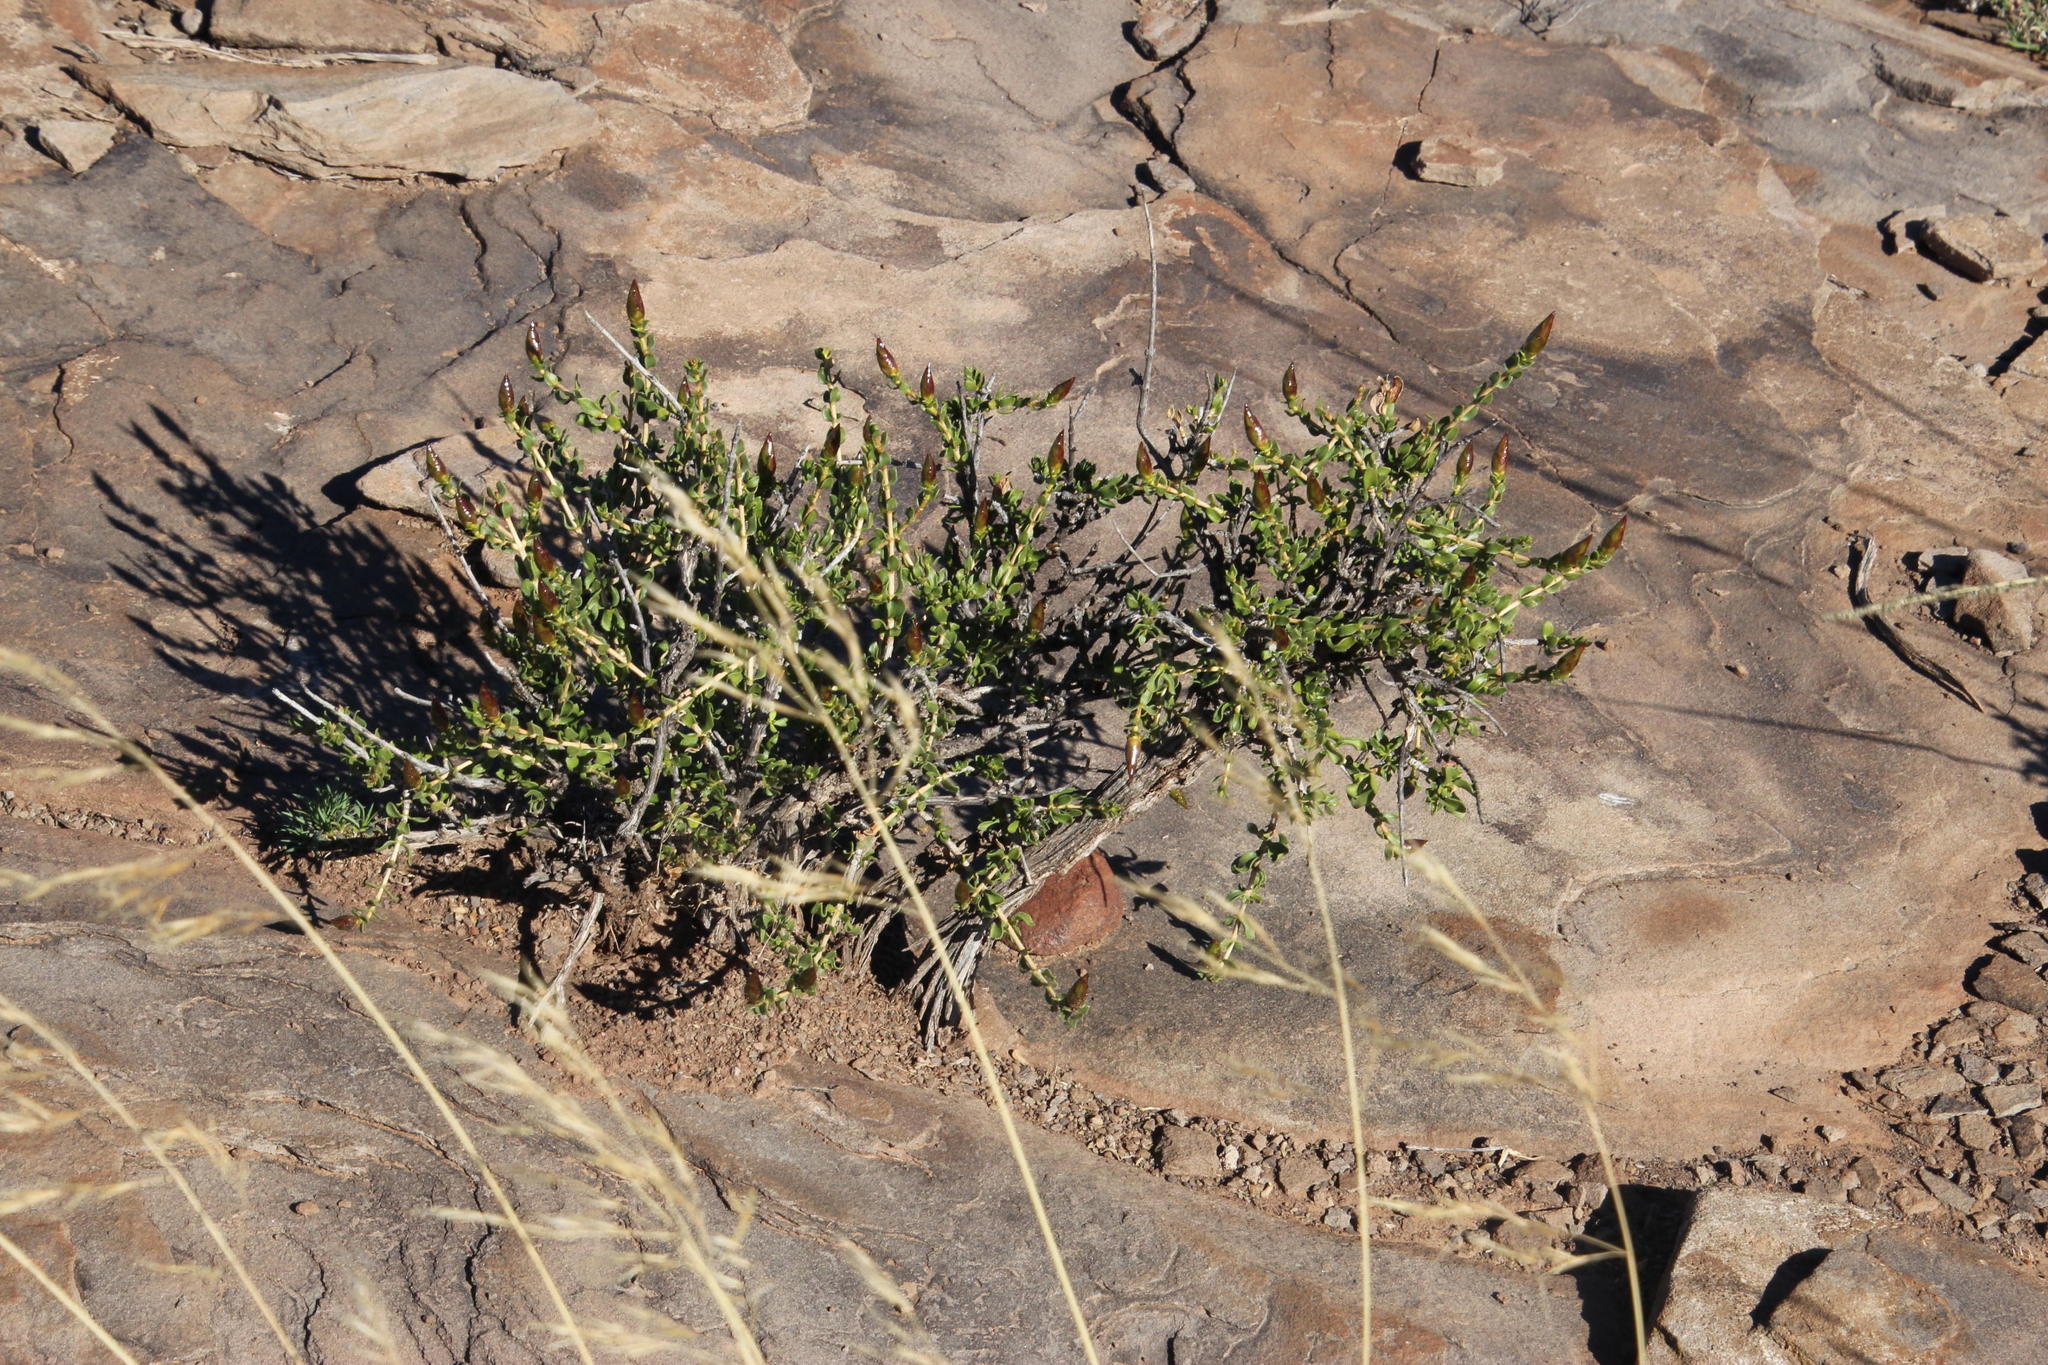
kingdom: Plantae
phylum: Tracheophyta
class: Magnoliopsida
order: Asterales
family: Asteraceae
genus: Pteronia
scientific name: Pteronia adenocarpa
